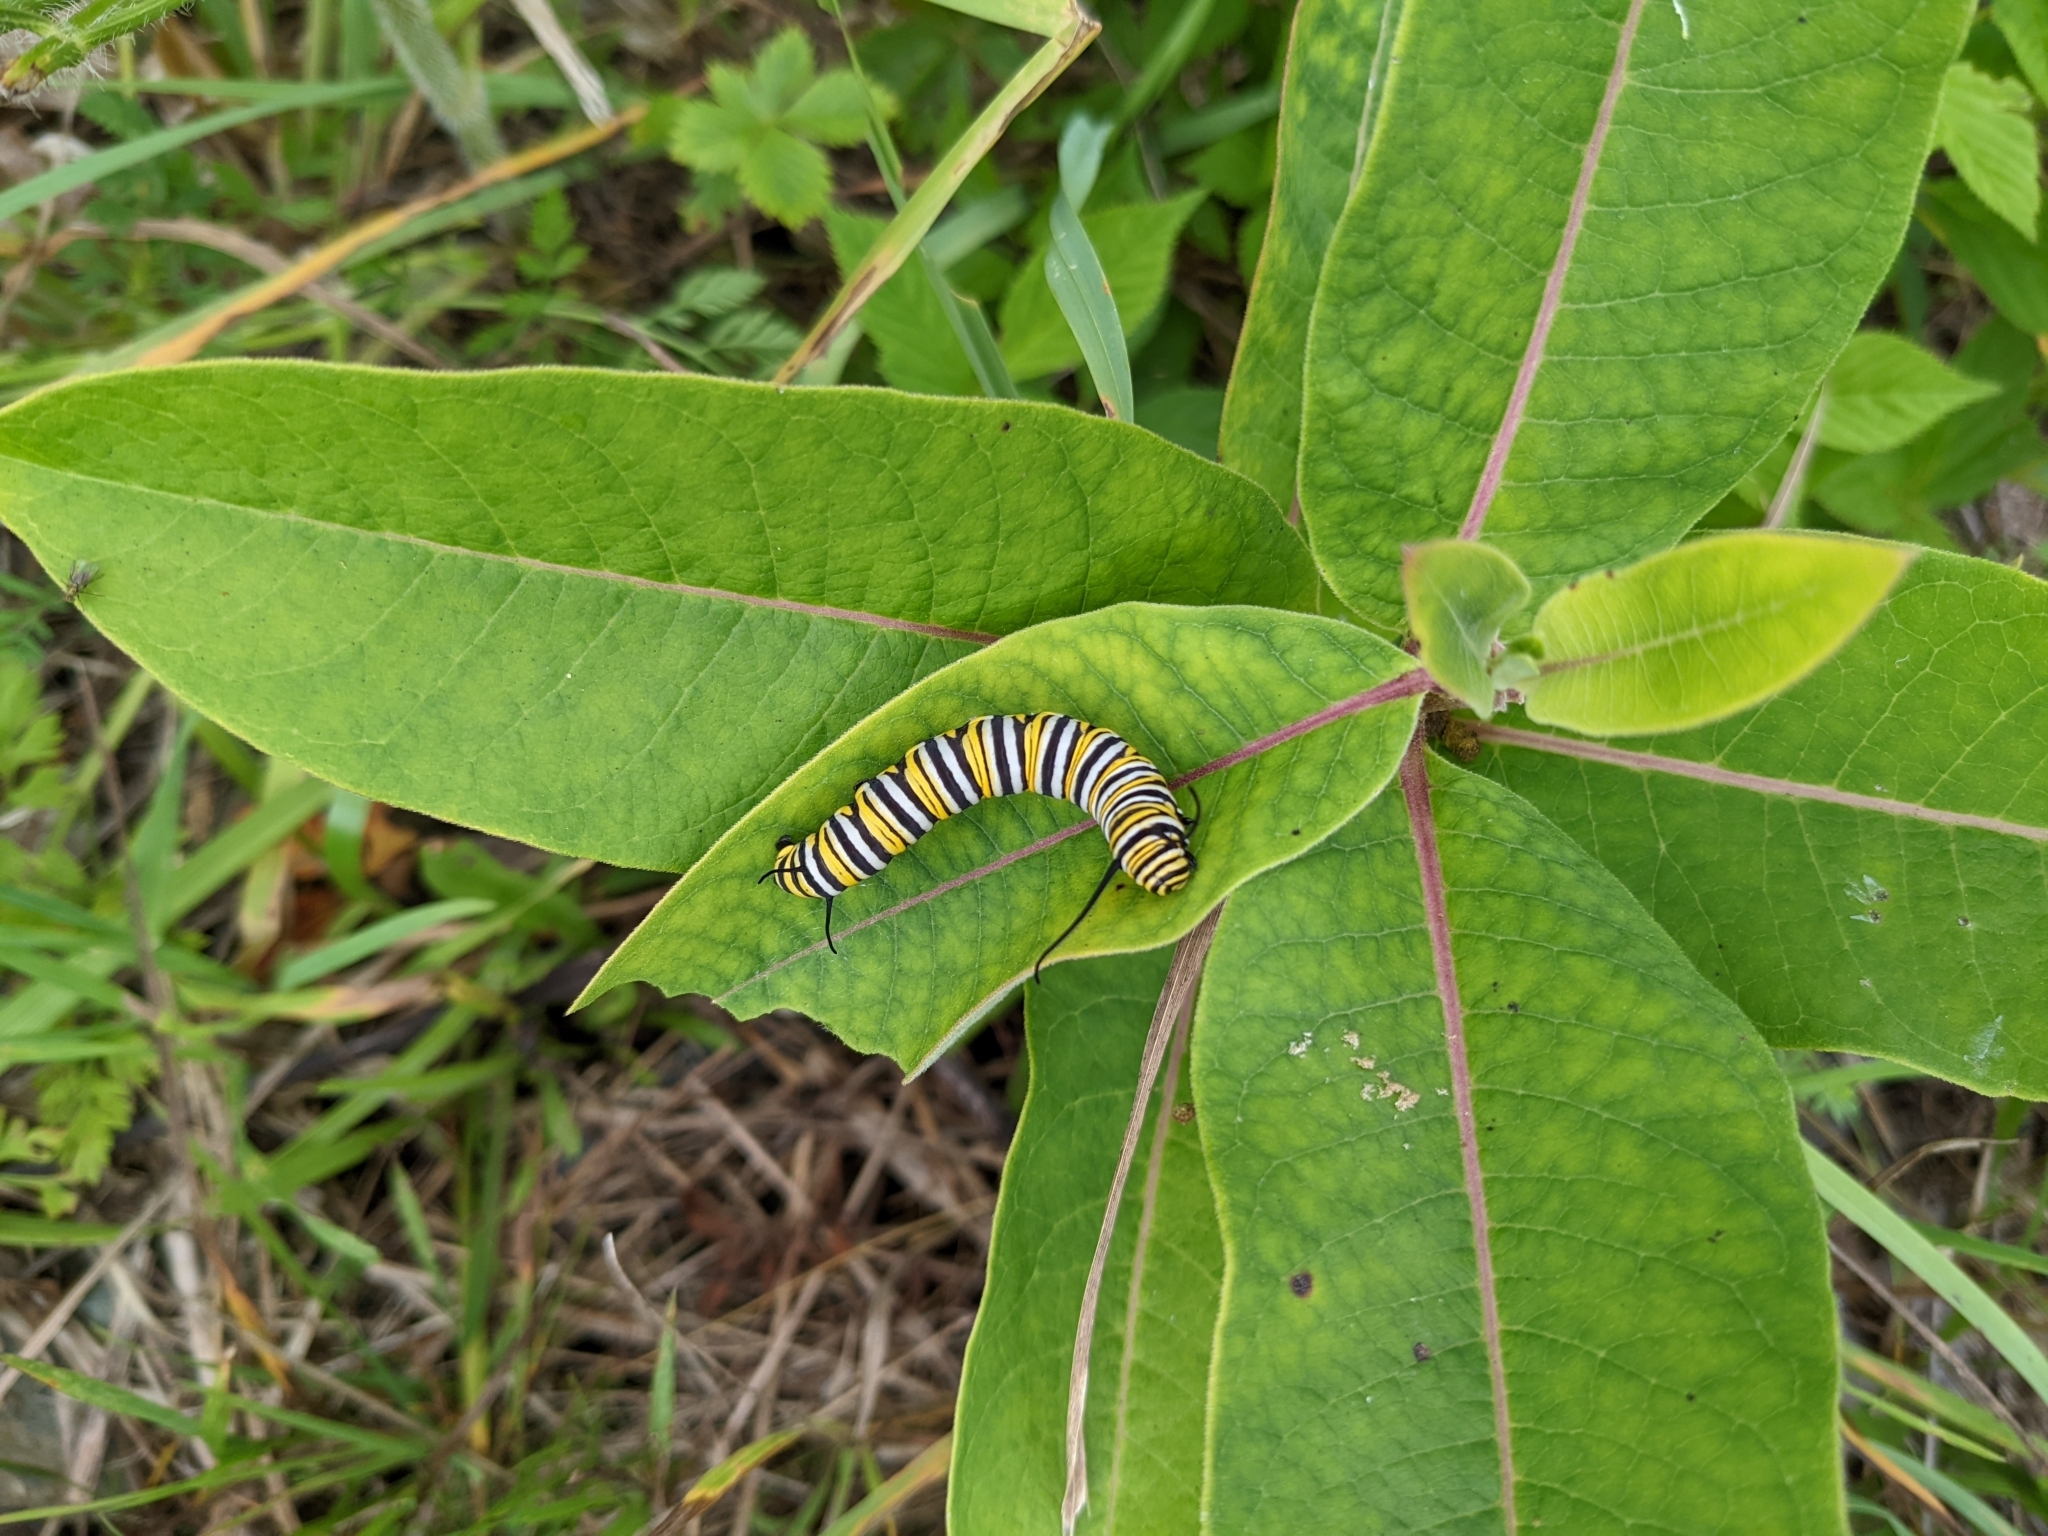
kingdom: Animalia
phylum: Arthropoda
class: Insecta
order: Lepidoptera
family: Nymphalidae
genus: Danaus
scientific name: Danaus plexippus
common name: Monarch
